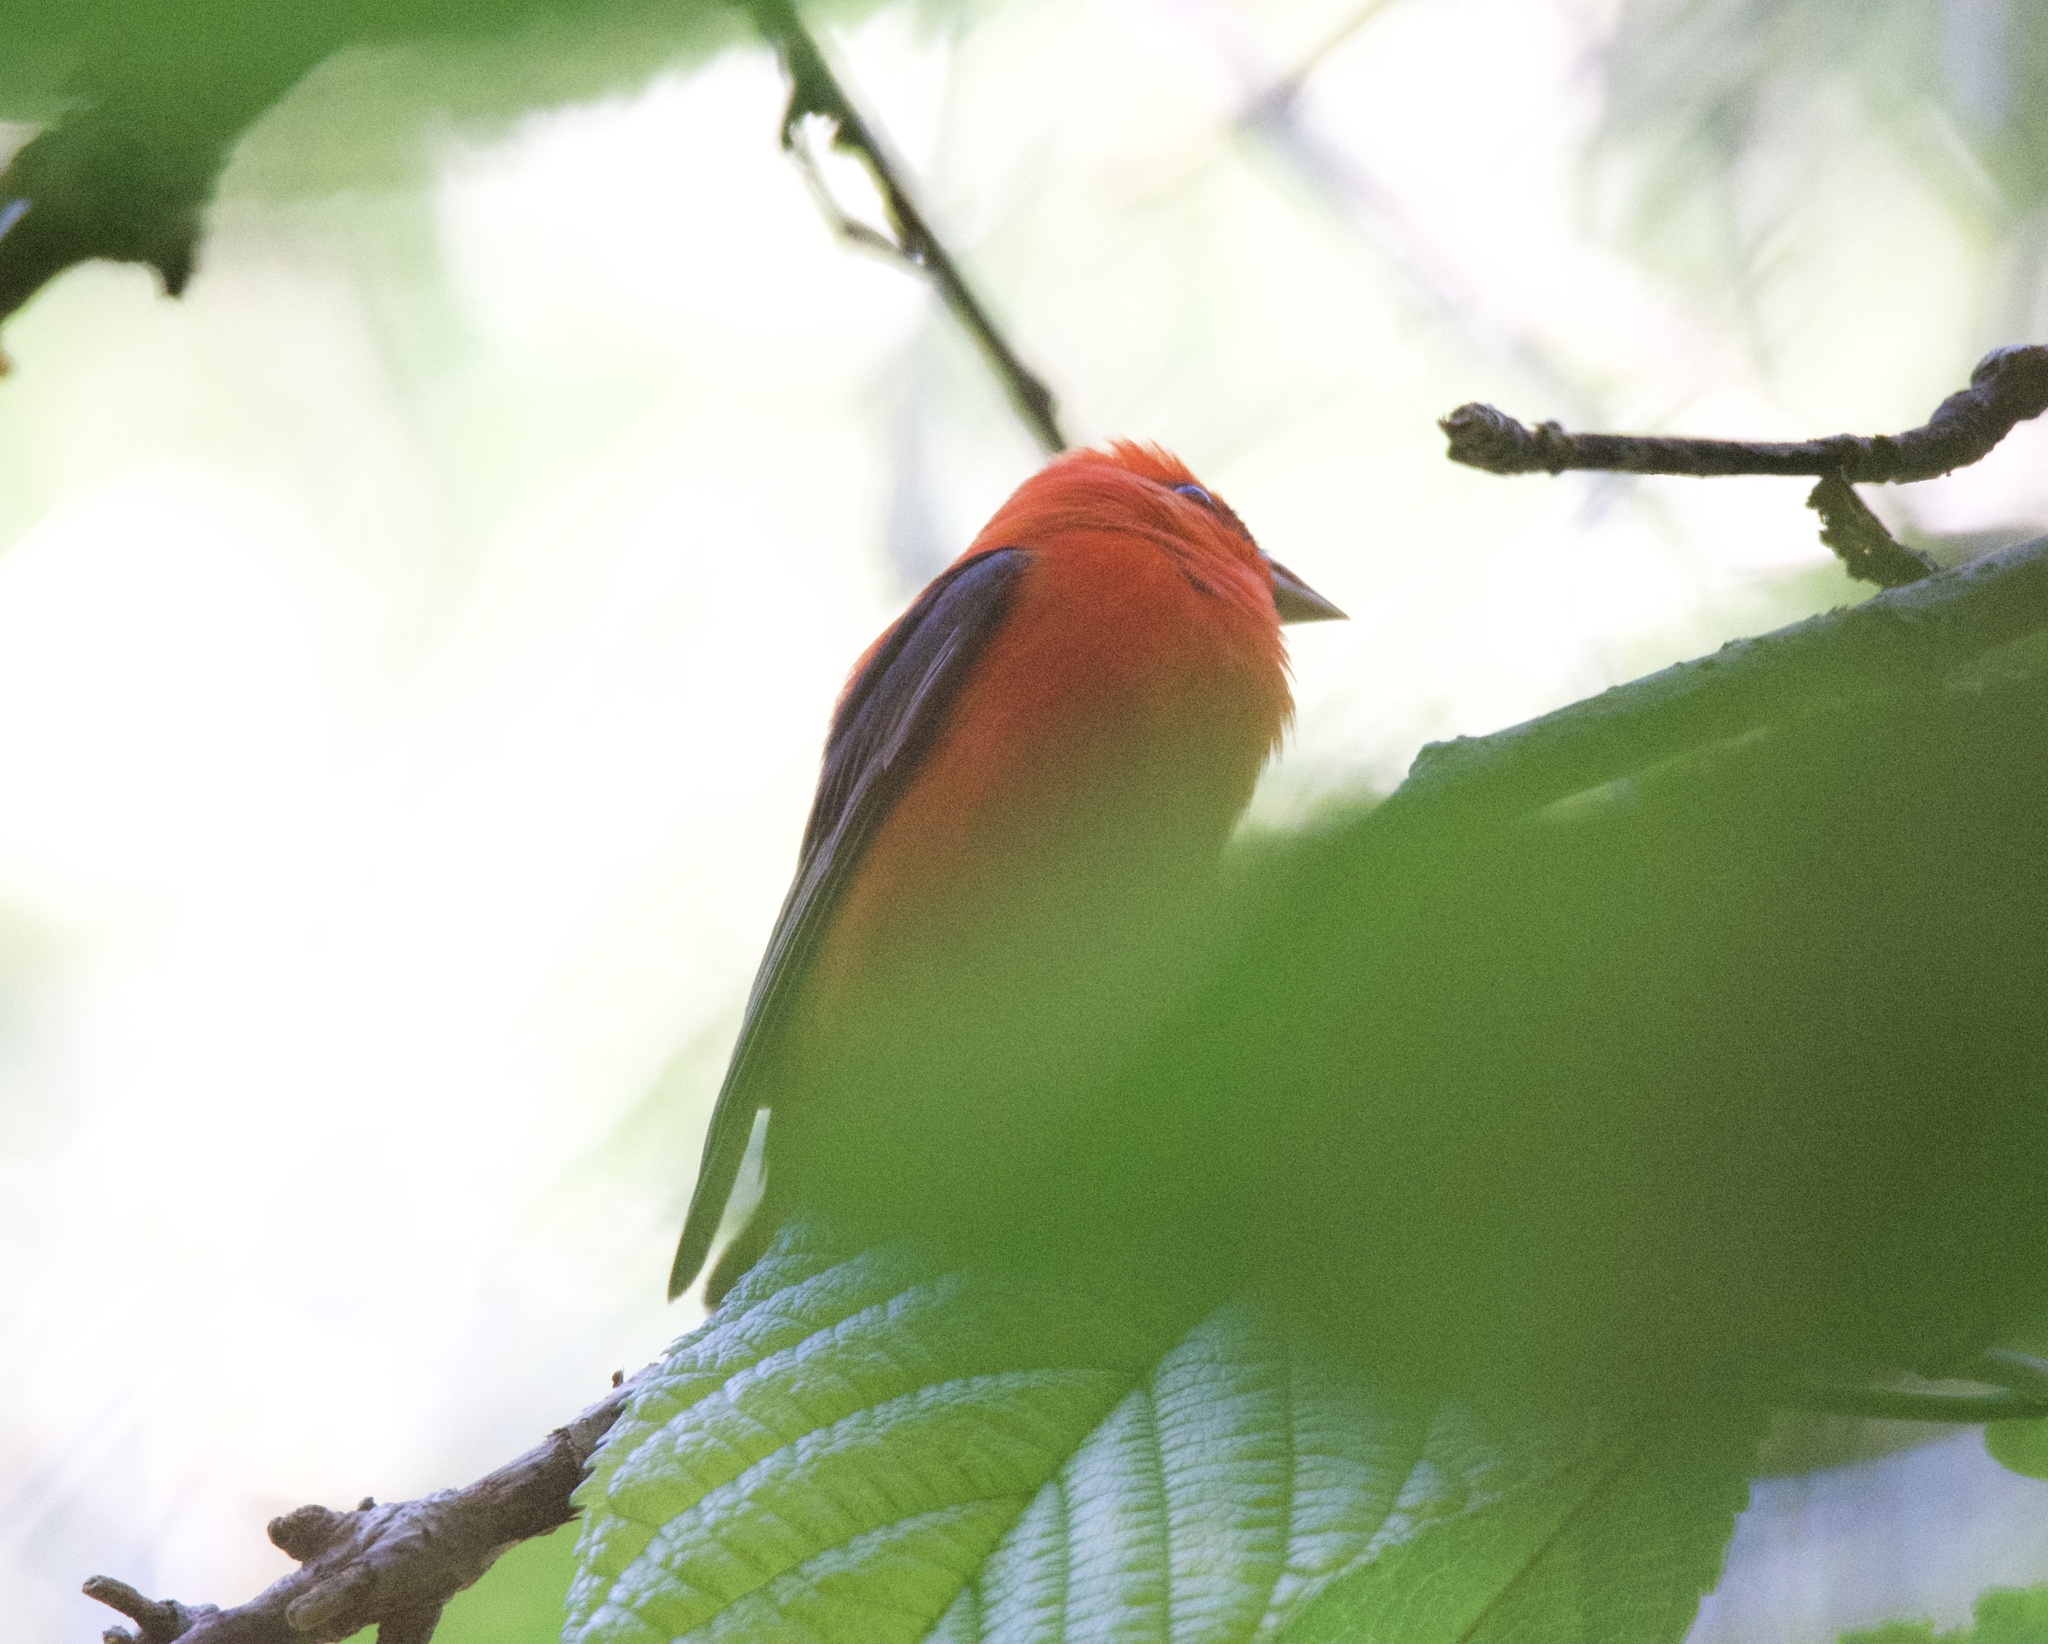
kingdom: Animalia
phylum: Chordata
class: Aves
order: Passeriformes
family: Cardinalidae
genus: Piranga
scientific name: Piranga olivacea
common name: Scarlet tanager
